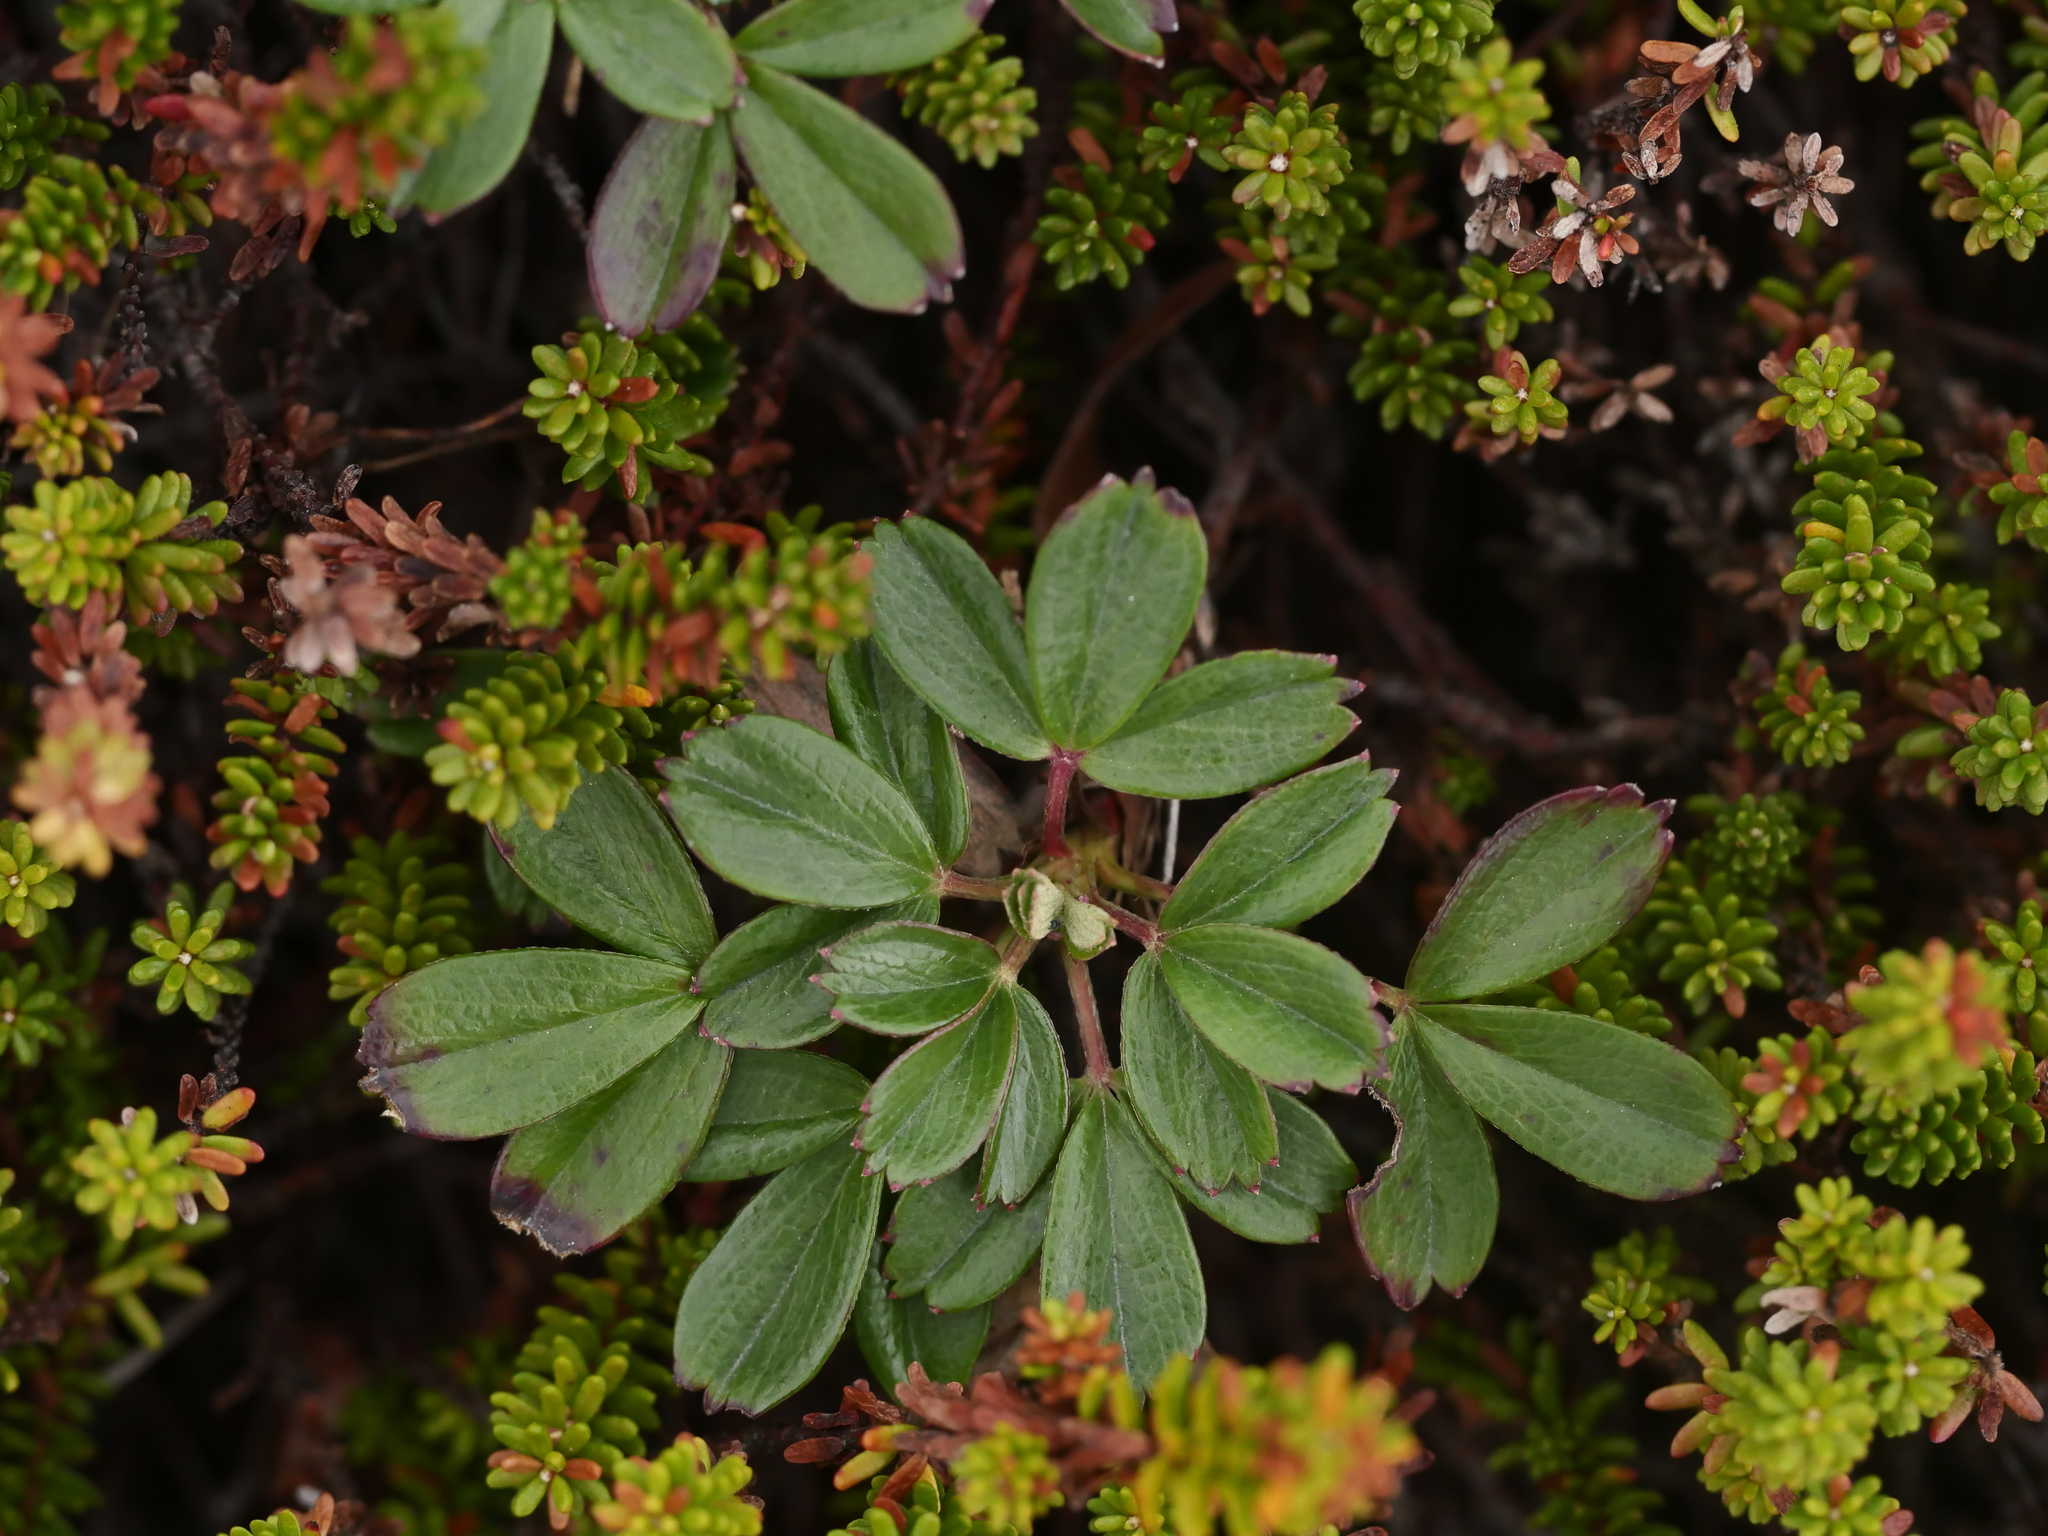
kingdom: Plantae
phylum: Tracheophyta
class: Magnoliopsida
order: Rosales
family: Rosaceae
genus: Sibbaldia
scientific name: Sibbaldia tridentata
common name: Three-toothed cinquefoil
